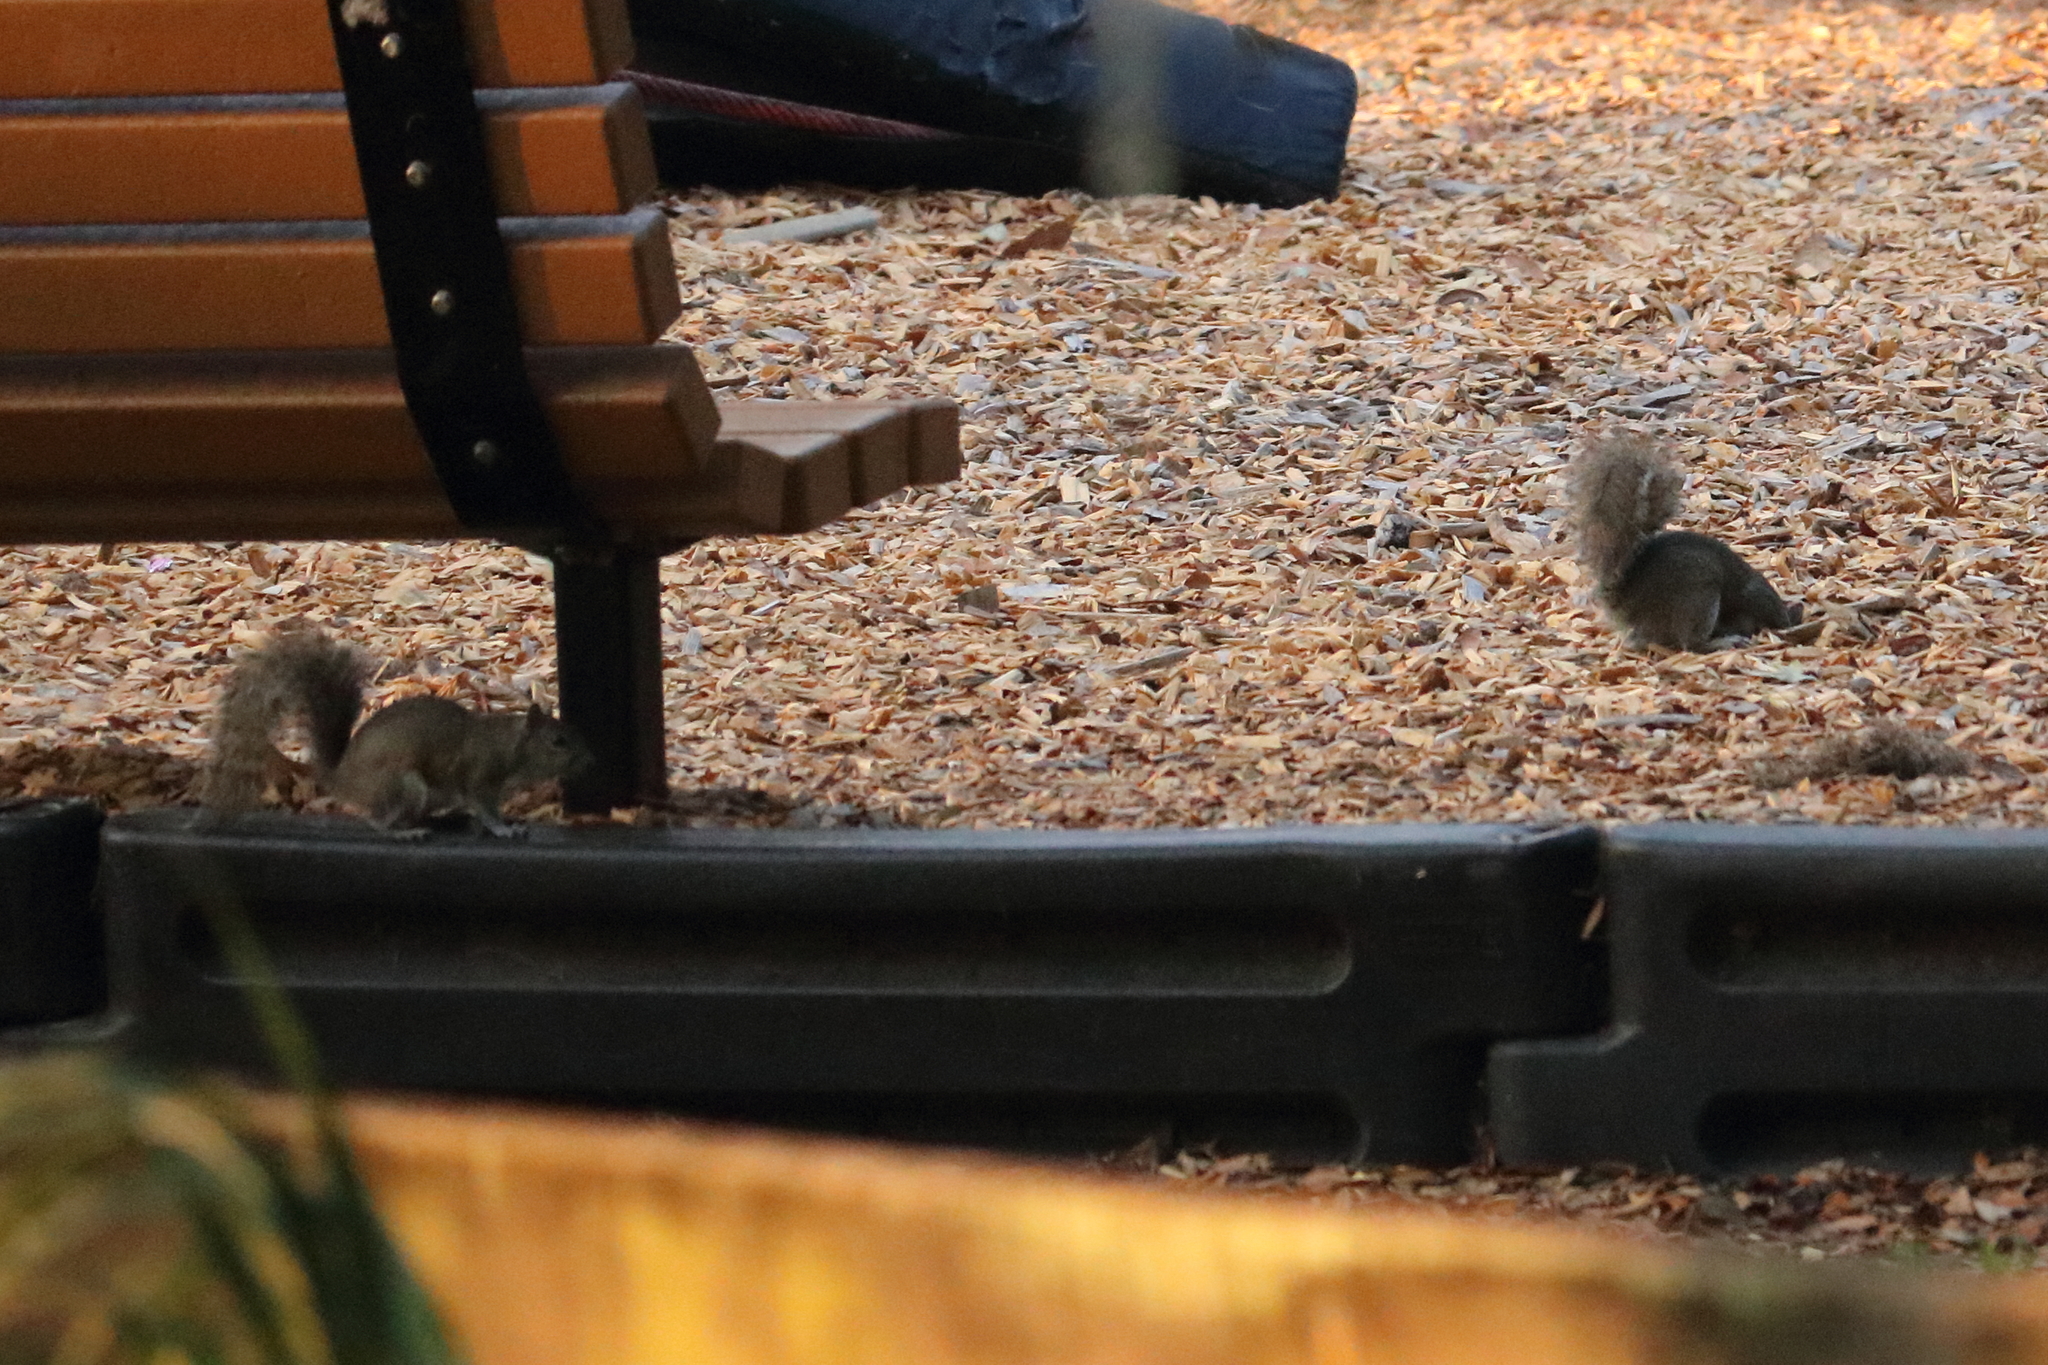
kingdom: Animalia
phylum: Chordata
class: Mammalia
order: Rodentia
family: Sciuridae
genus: Sciurus
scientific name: Sciurus carolinensis
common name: Eastern gray squirrel
